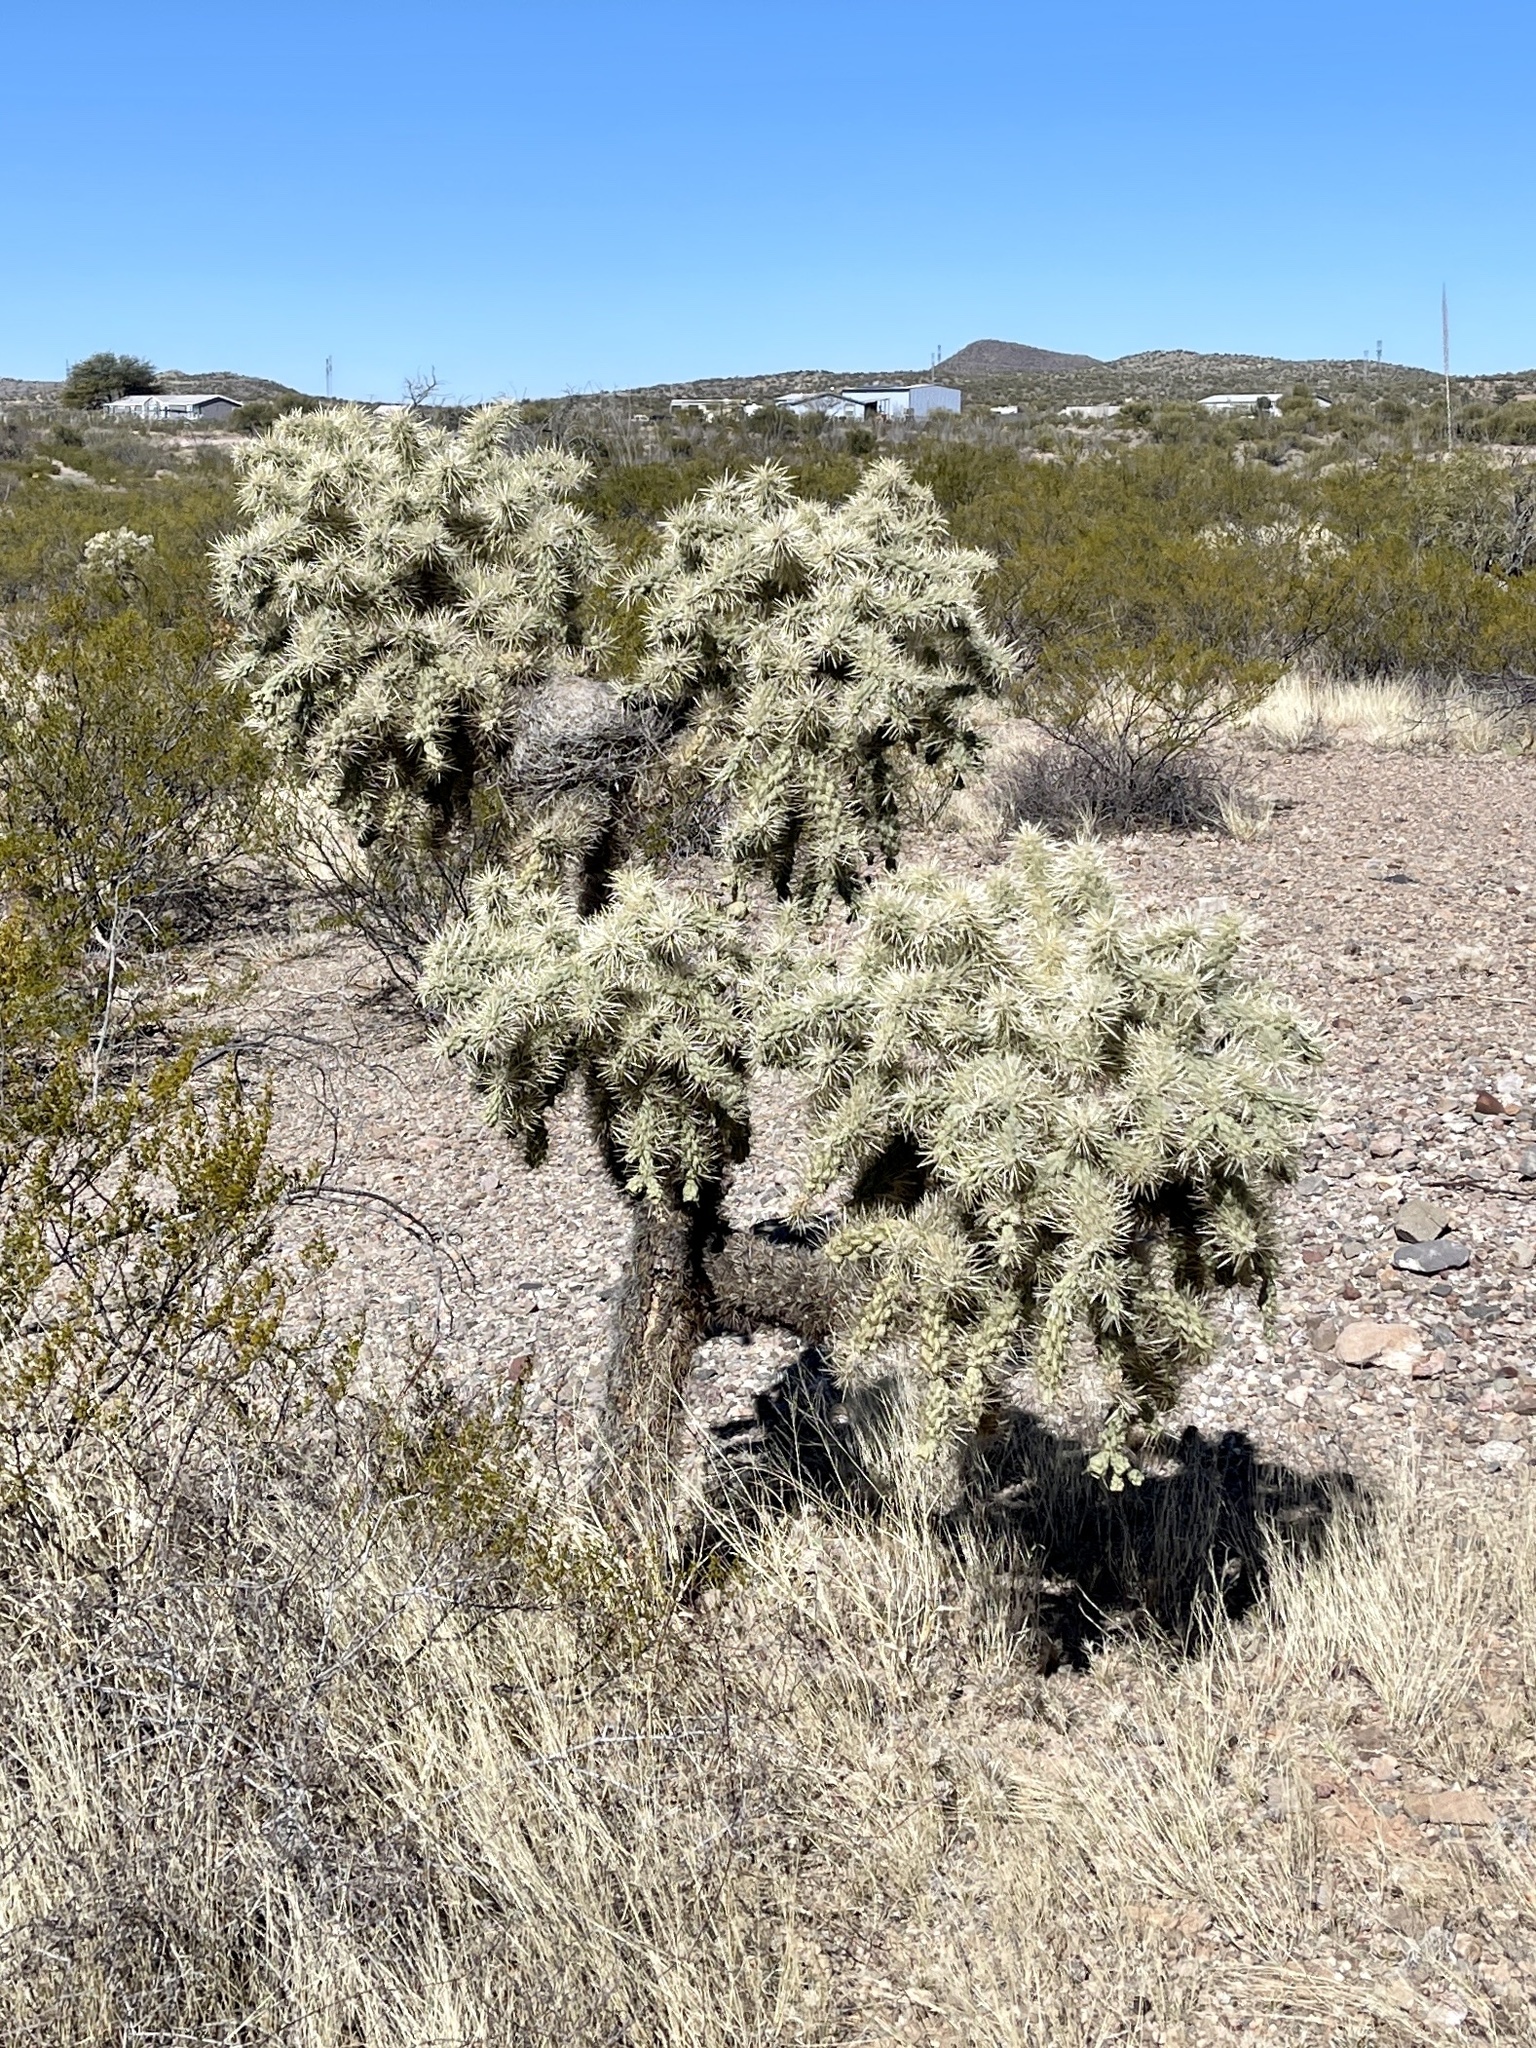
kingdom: Plantae
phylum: Tracheophyta
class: Magnoliopsida
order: Caryophyllales
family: Cactaceae
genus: Cylindropuntia
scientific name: Cylindropuntia fulgida
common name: Jumping cholla
